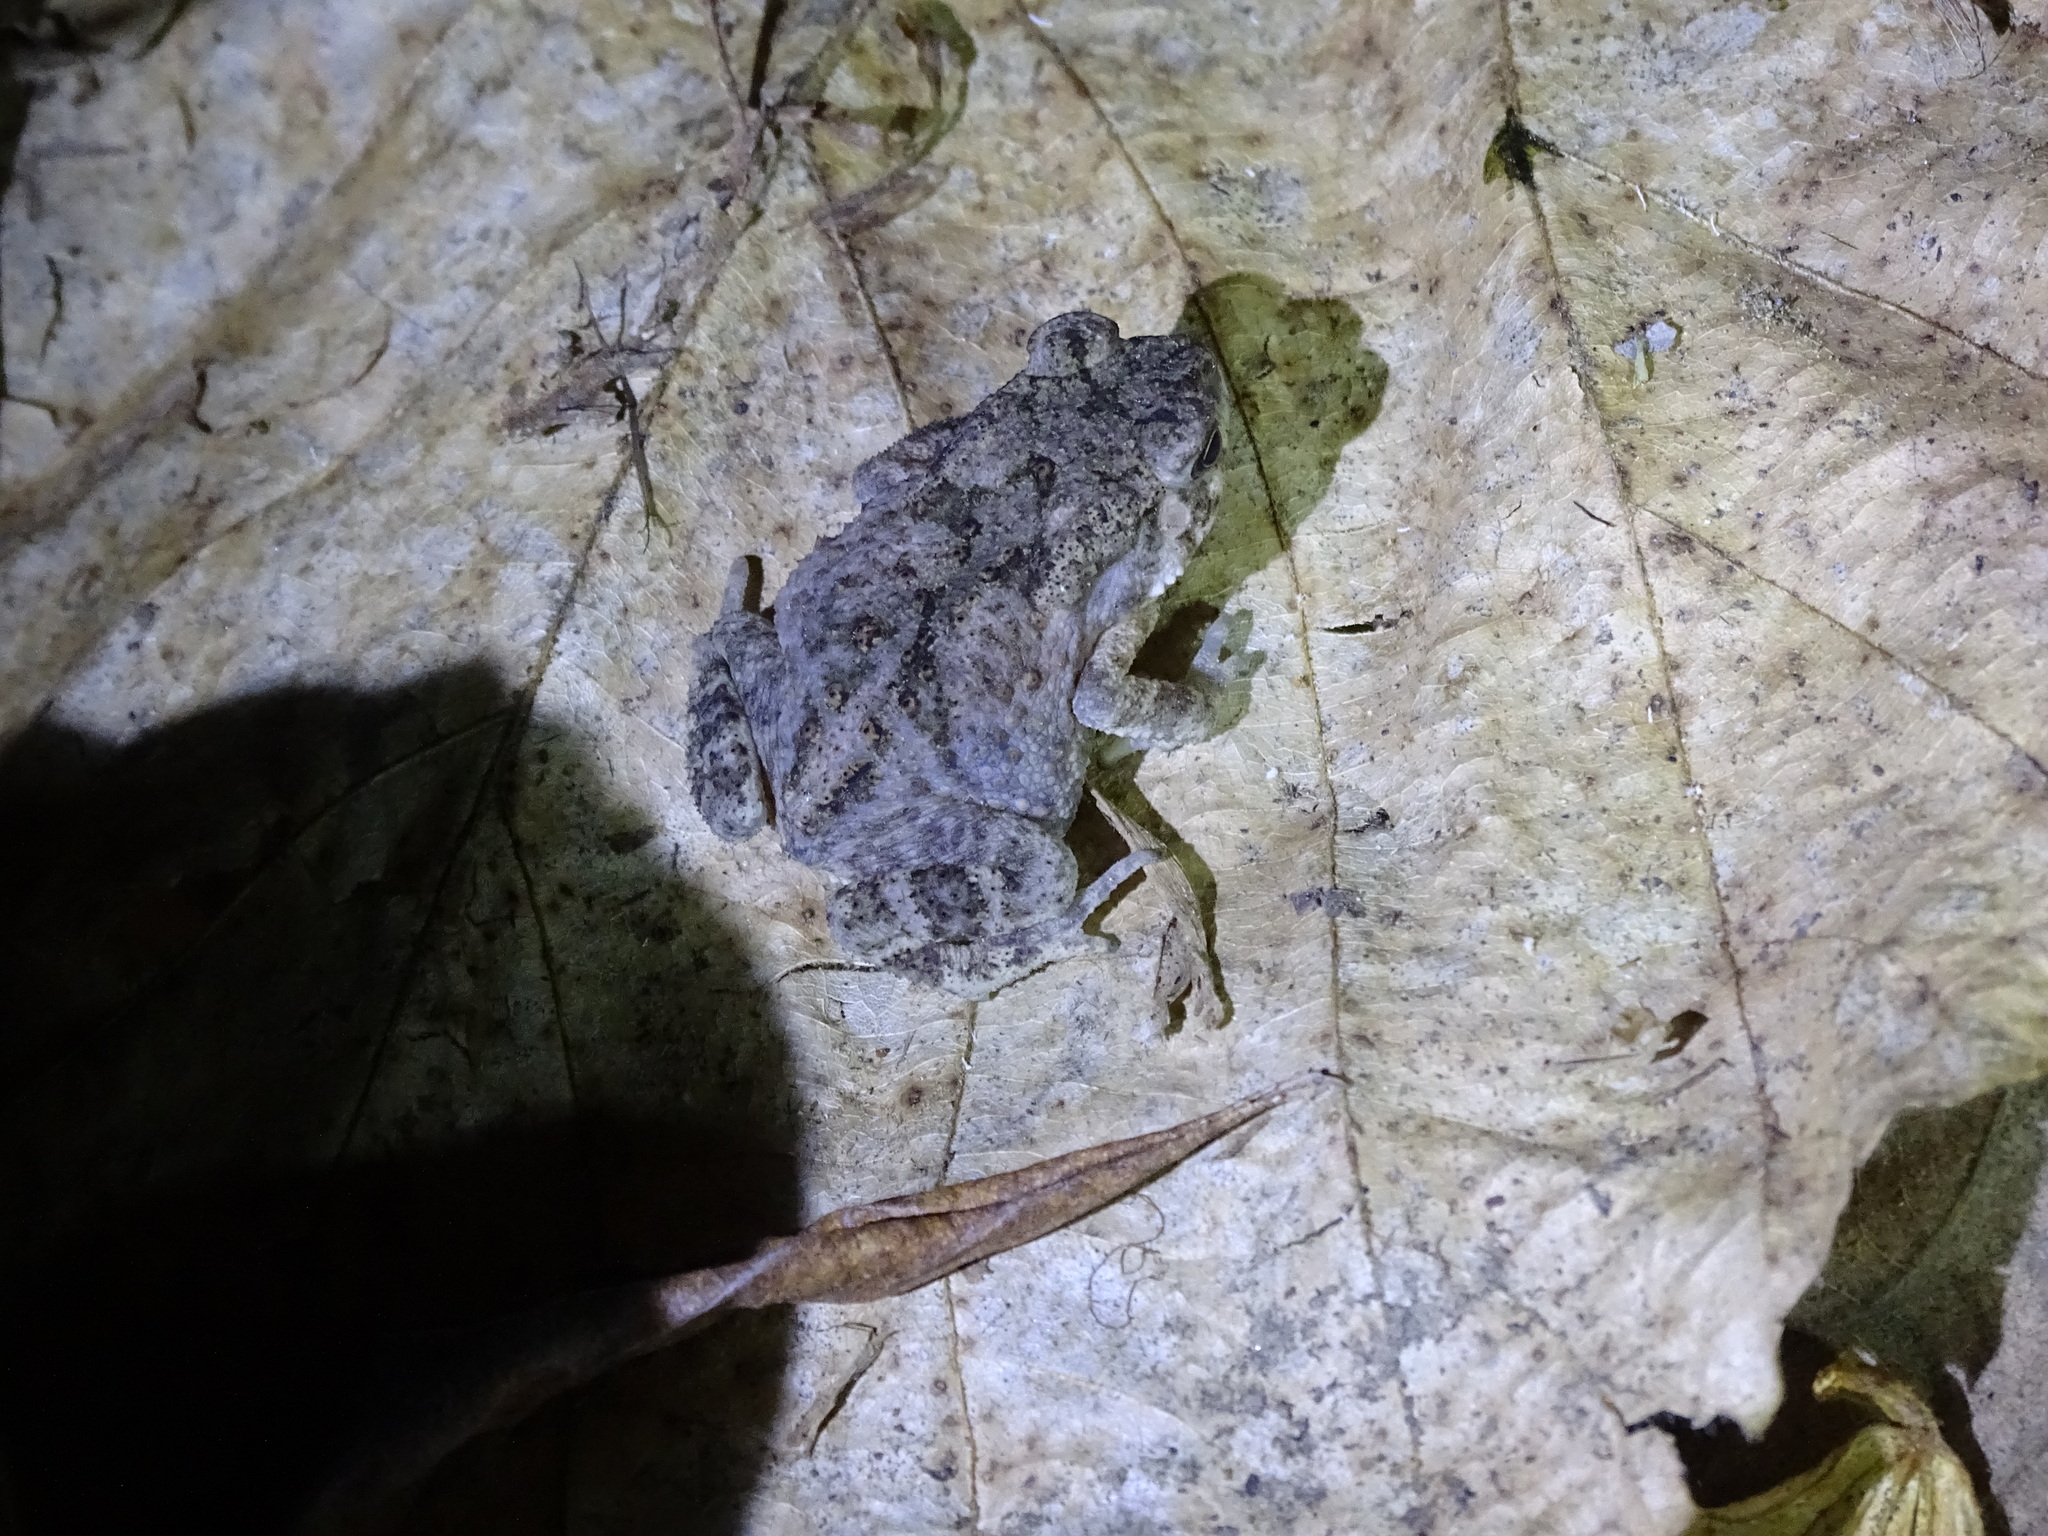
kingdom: Animalia
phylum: Chordata
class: Amphibia
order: Anura
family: Bufonidae
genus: Duttaphrynus
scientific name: Duttaphrynus melanostictus
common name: Common sunda toad
